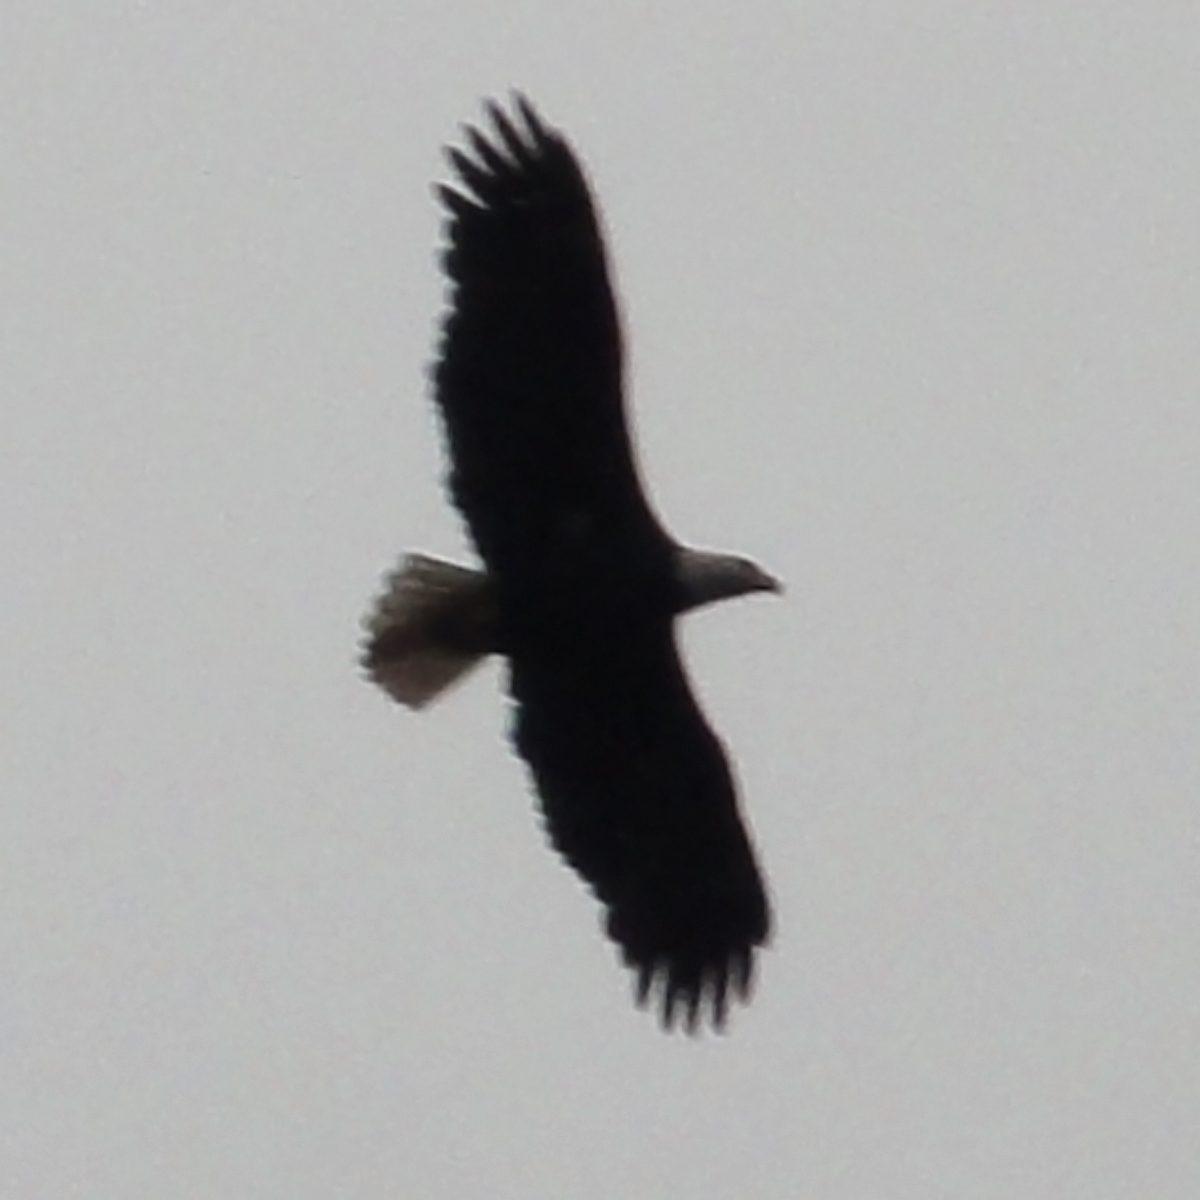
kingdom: Animalia
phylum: Chordata
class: Aves
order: Accipitriformes
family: Accipitridae
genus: Haliaeetus
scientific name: Haliaeetus leucocephalus
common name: Bald eagle
